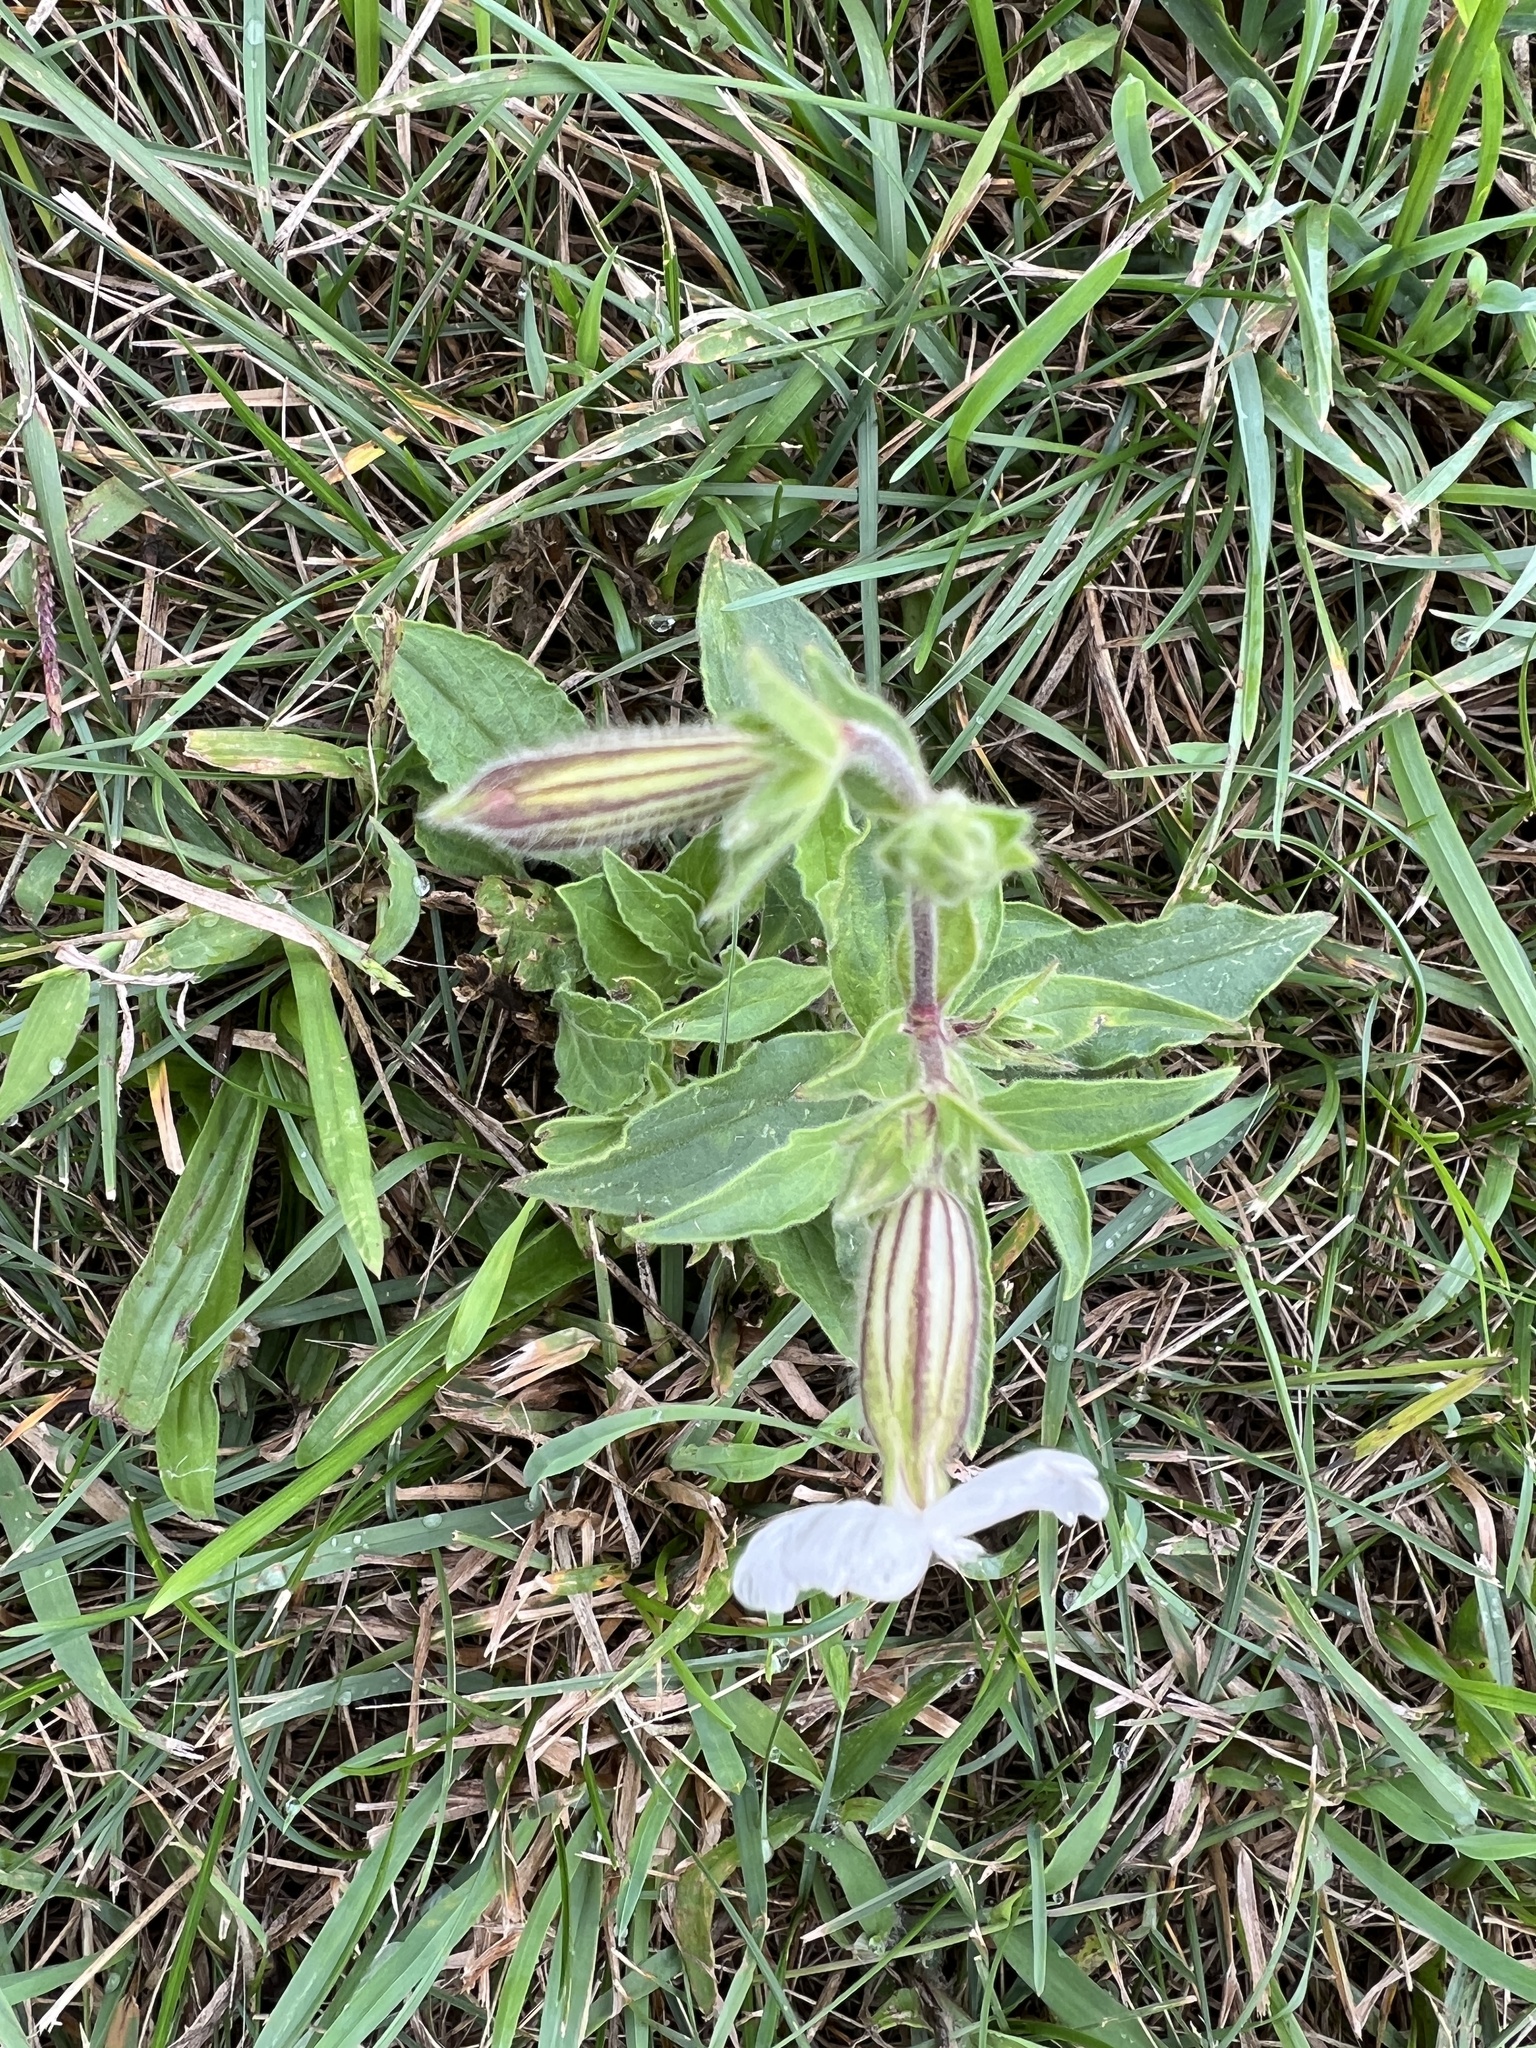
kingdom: Plantae
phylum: Tracheophyta
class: Magnoliopsida
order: Caryophyllales
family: Caryophyllaceae
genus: Silene
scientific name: Silene latifolia
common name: White campion
